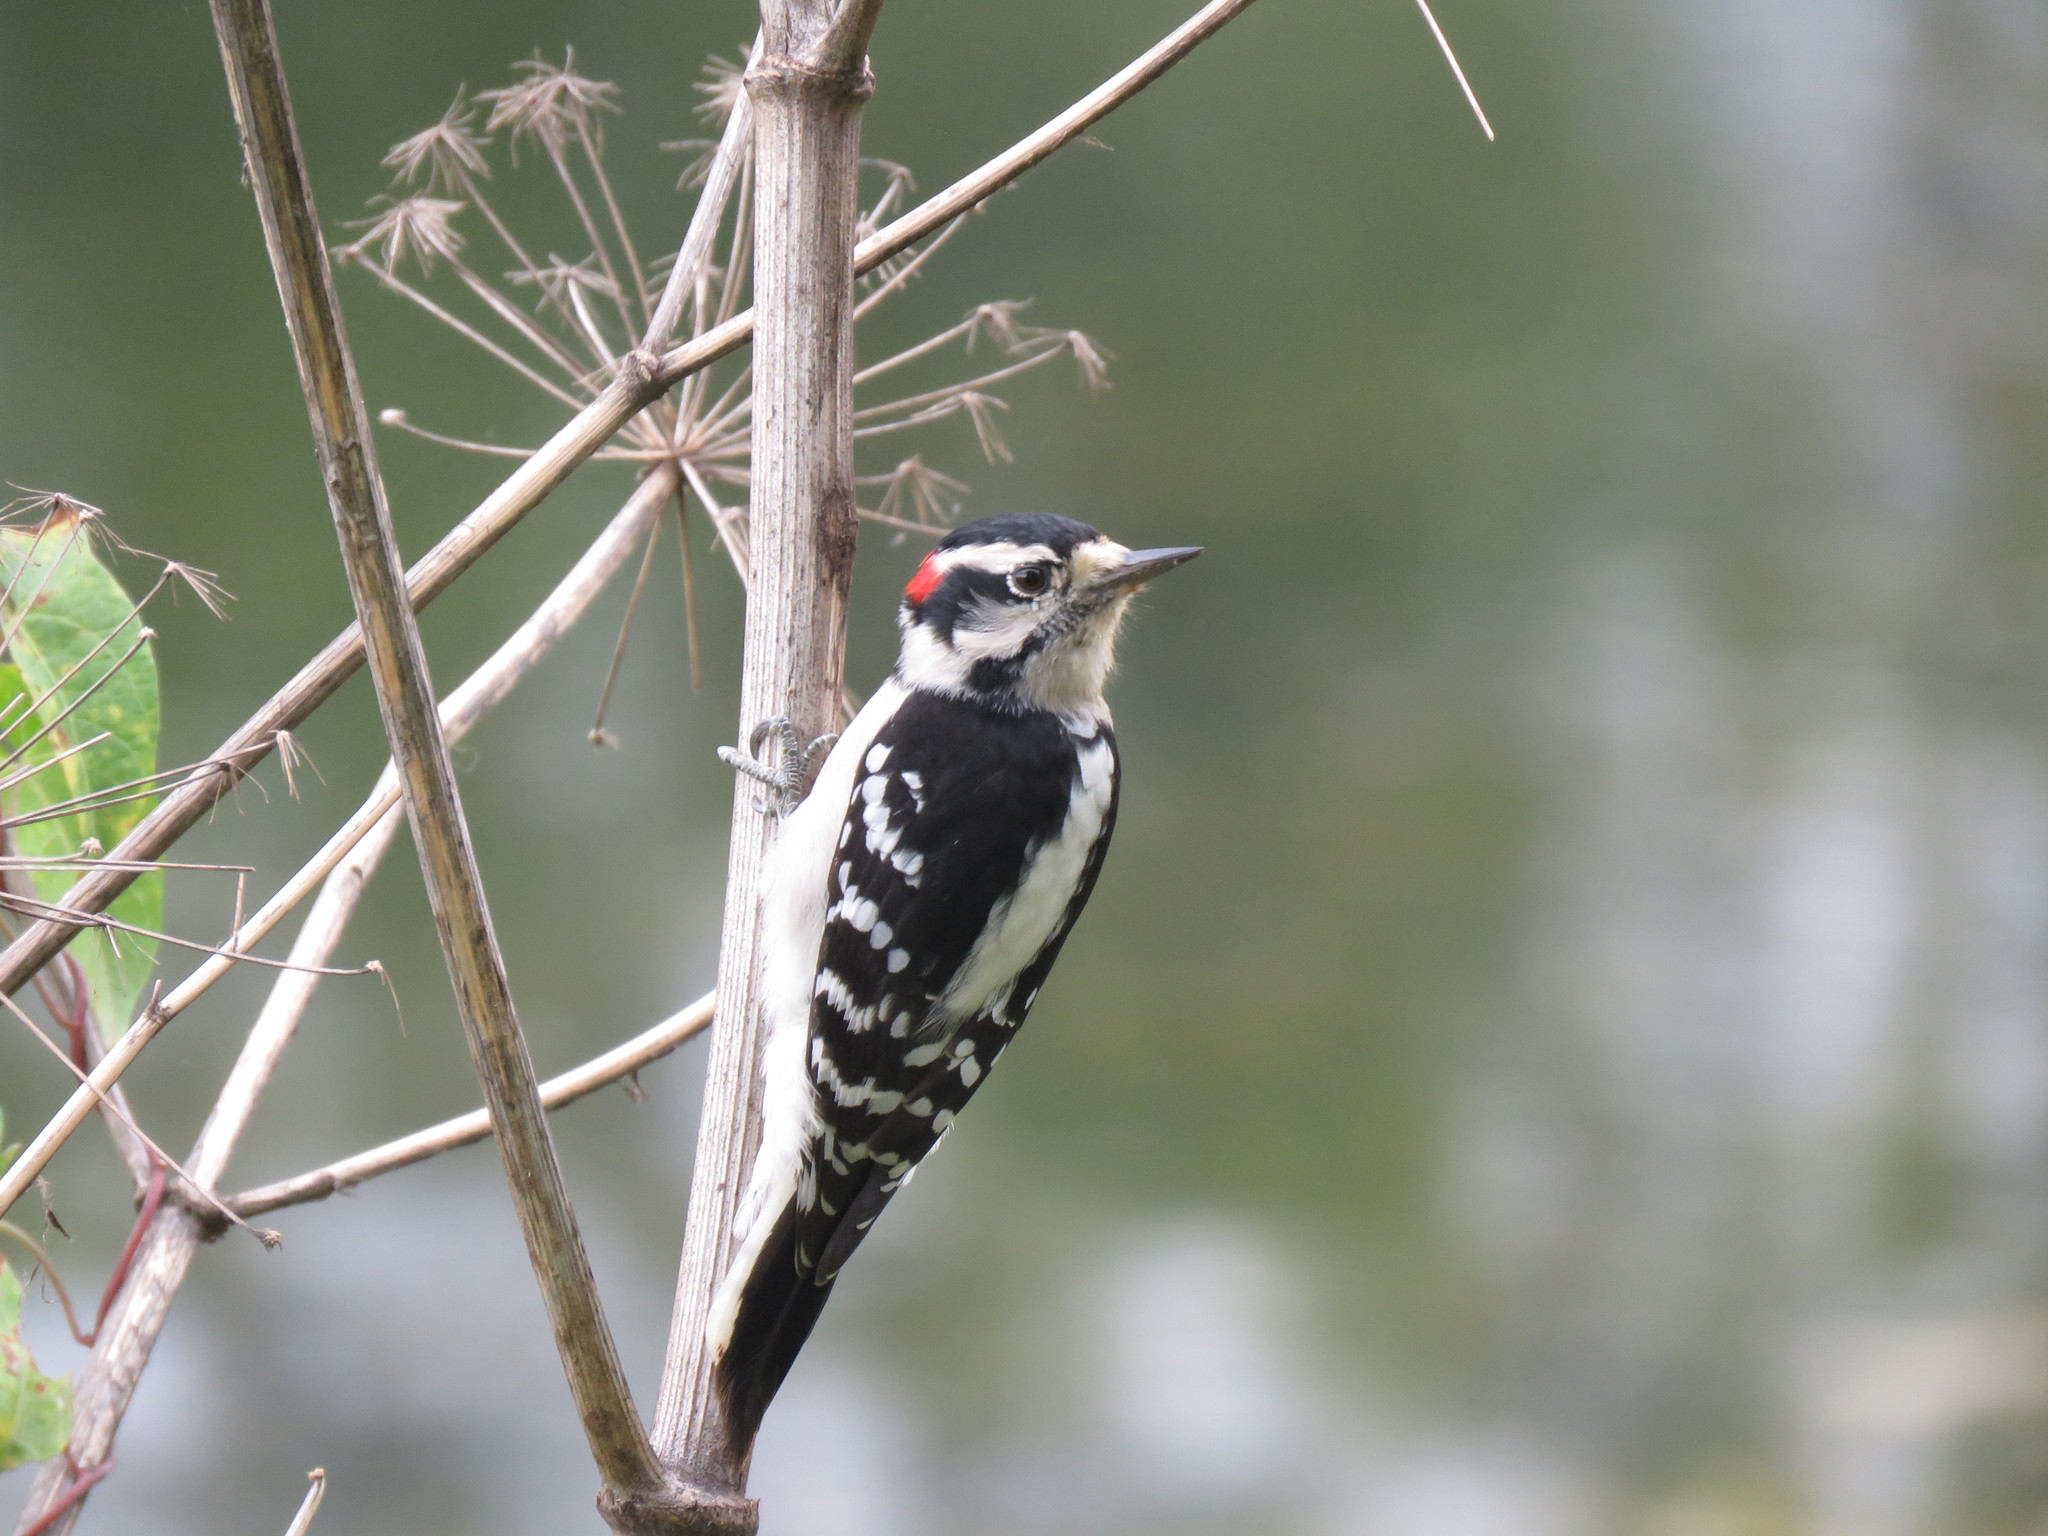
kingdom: Animalia
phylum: Chordata
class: Aves
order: Piciformes
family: Picidae
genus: Dryobates
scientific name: Dryobates pubescens
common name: Downy woodpecker
